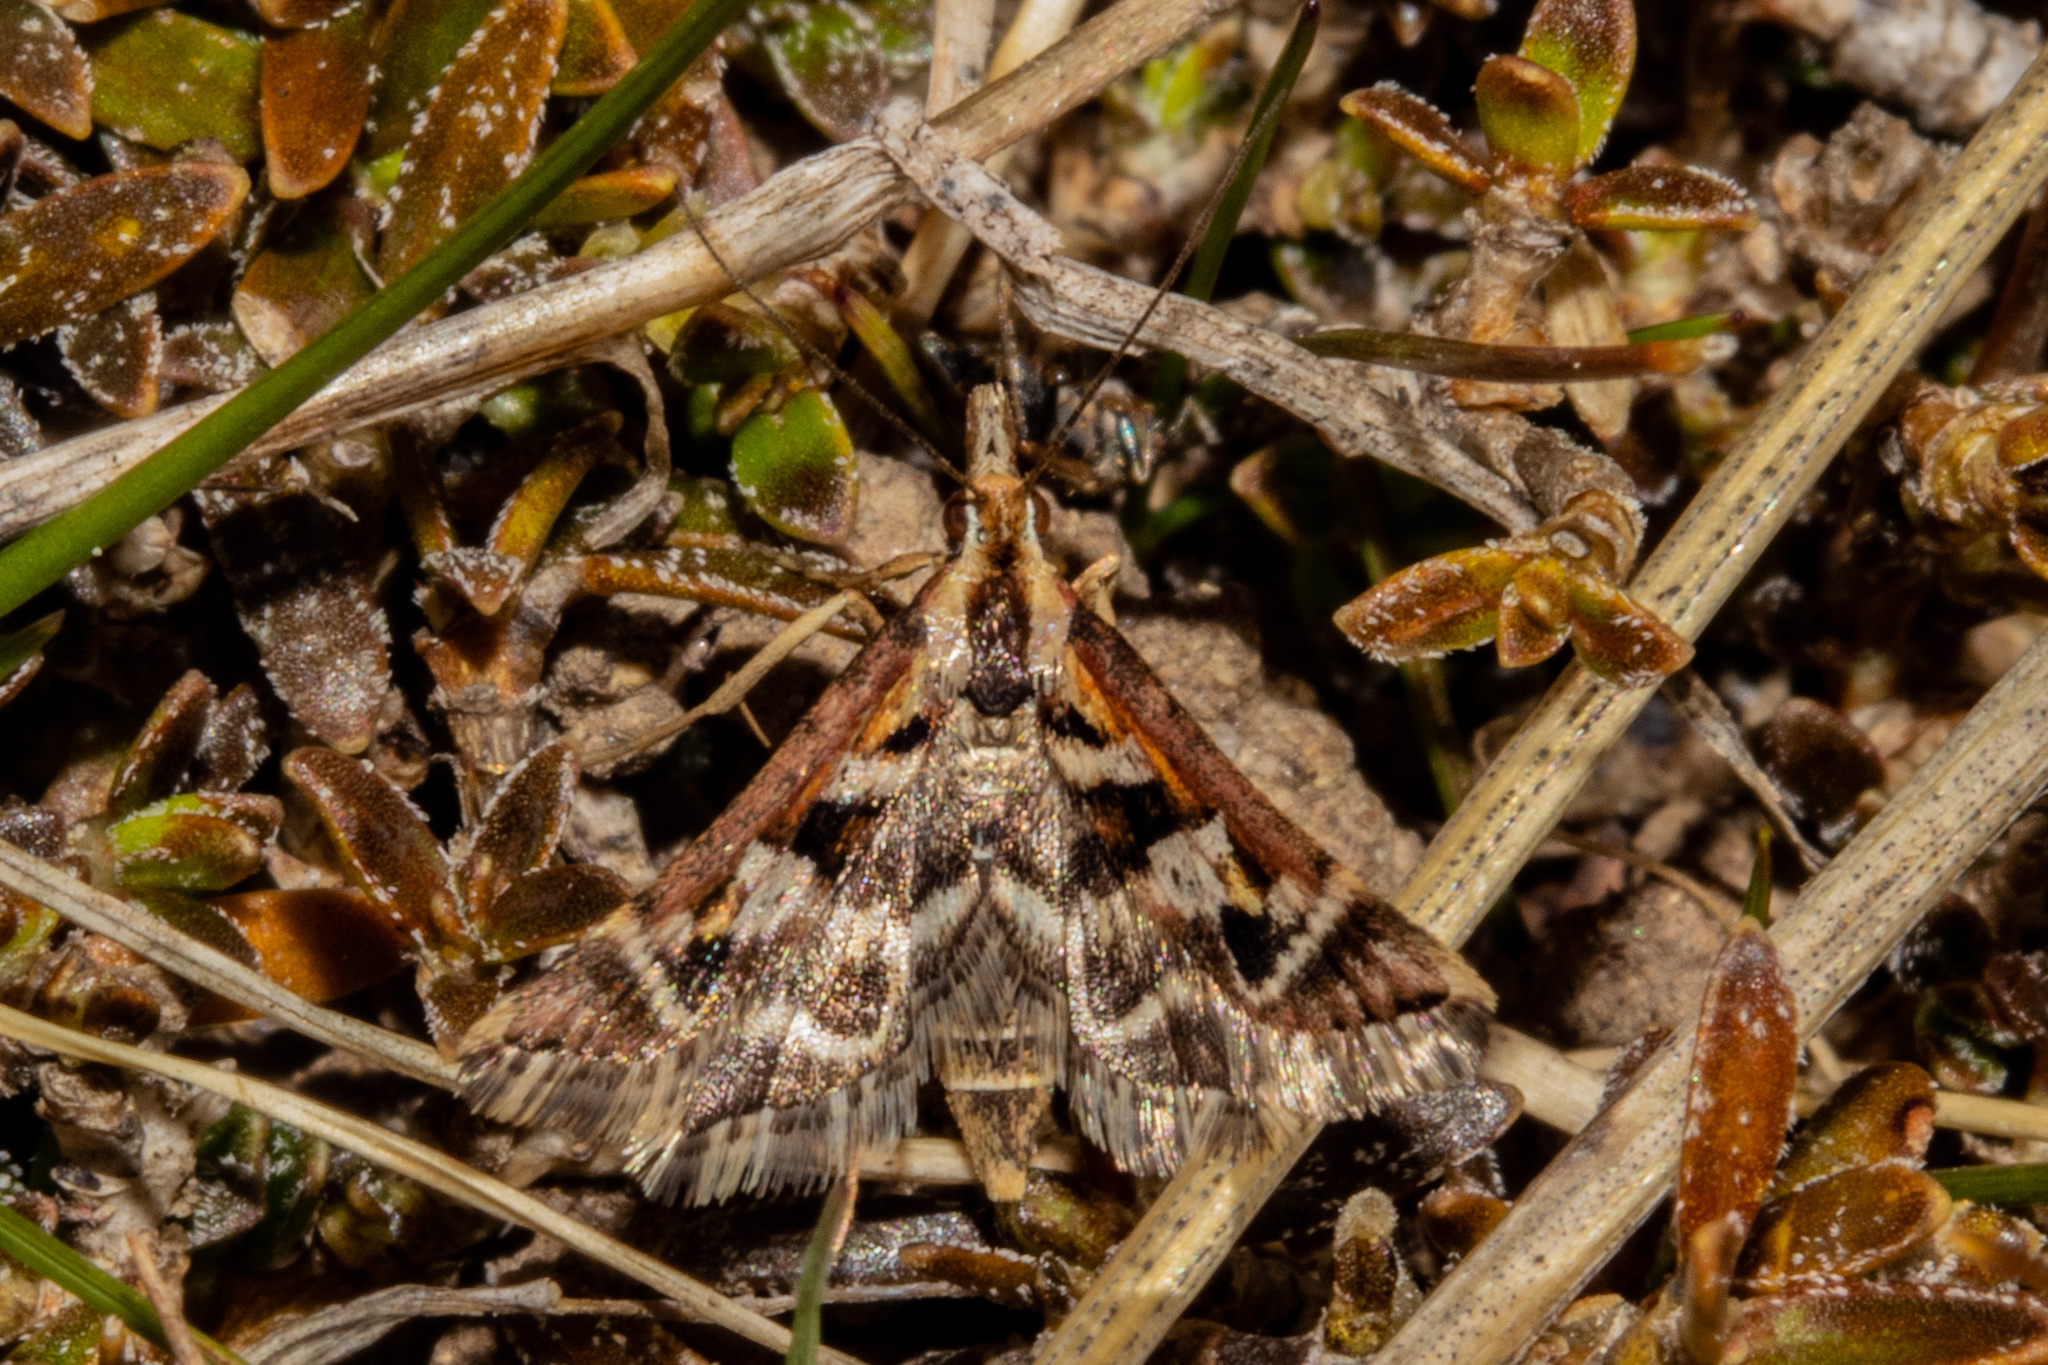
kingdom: Animalia
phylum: Arthropoda
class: Insecta
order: Lepidoptera
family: Crambidae
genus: Diasemia
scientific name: Diasemia grammalis
